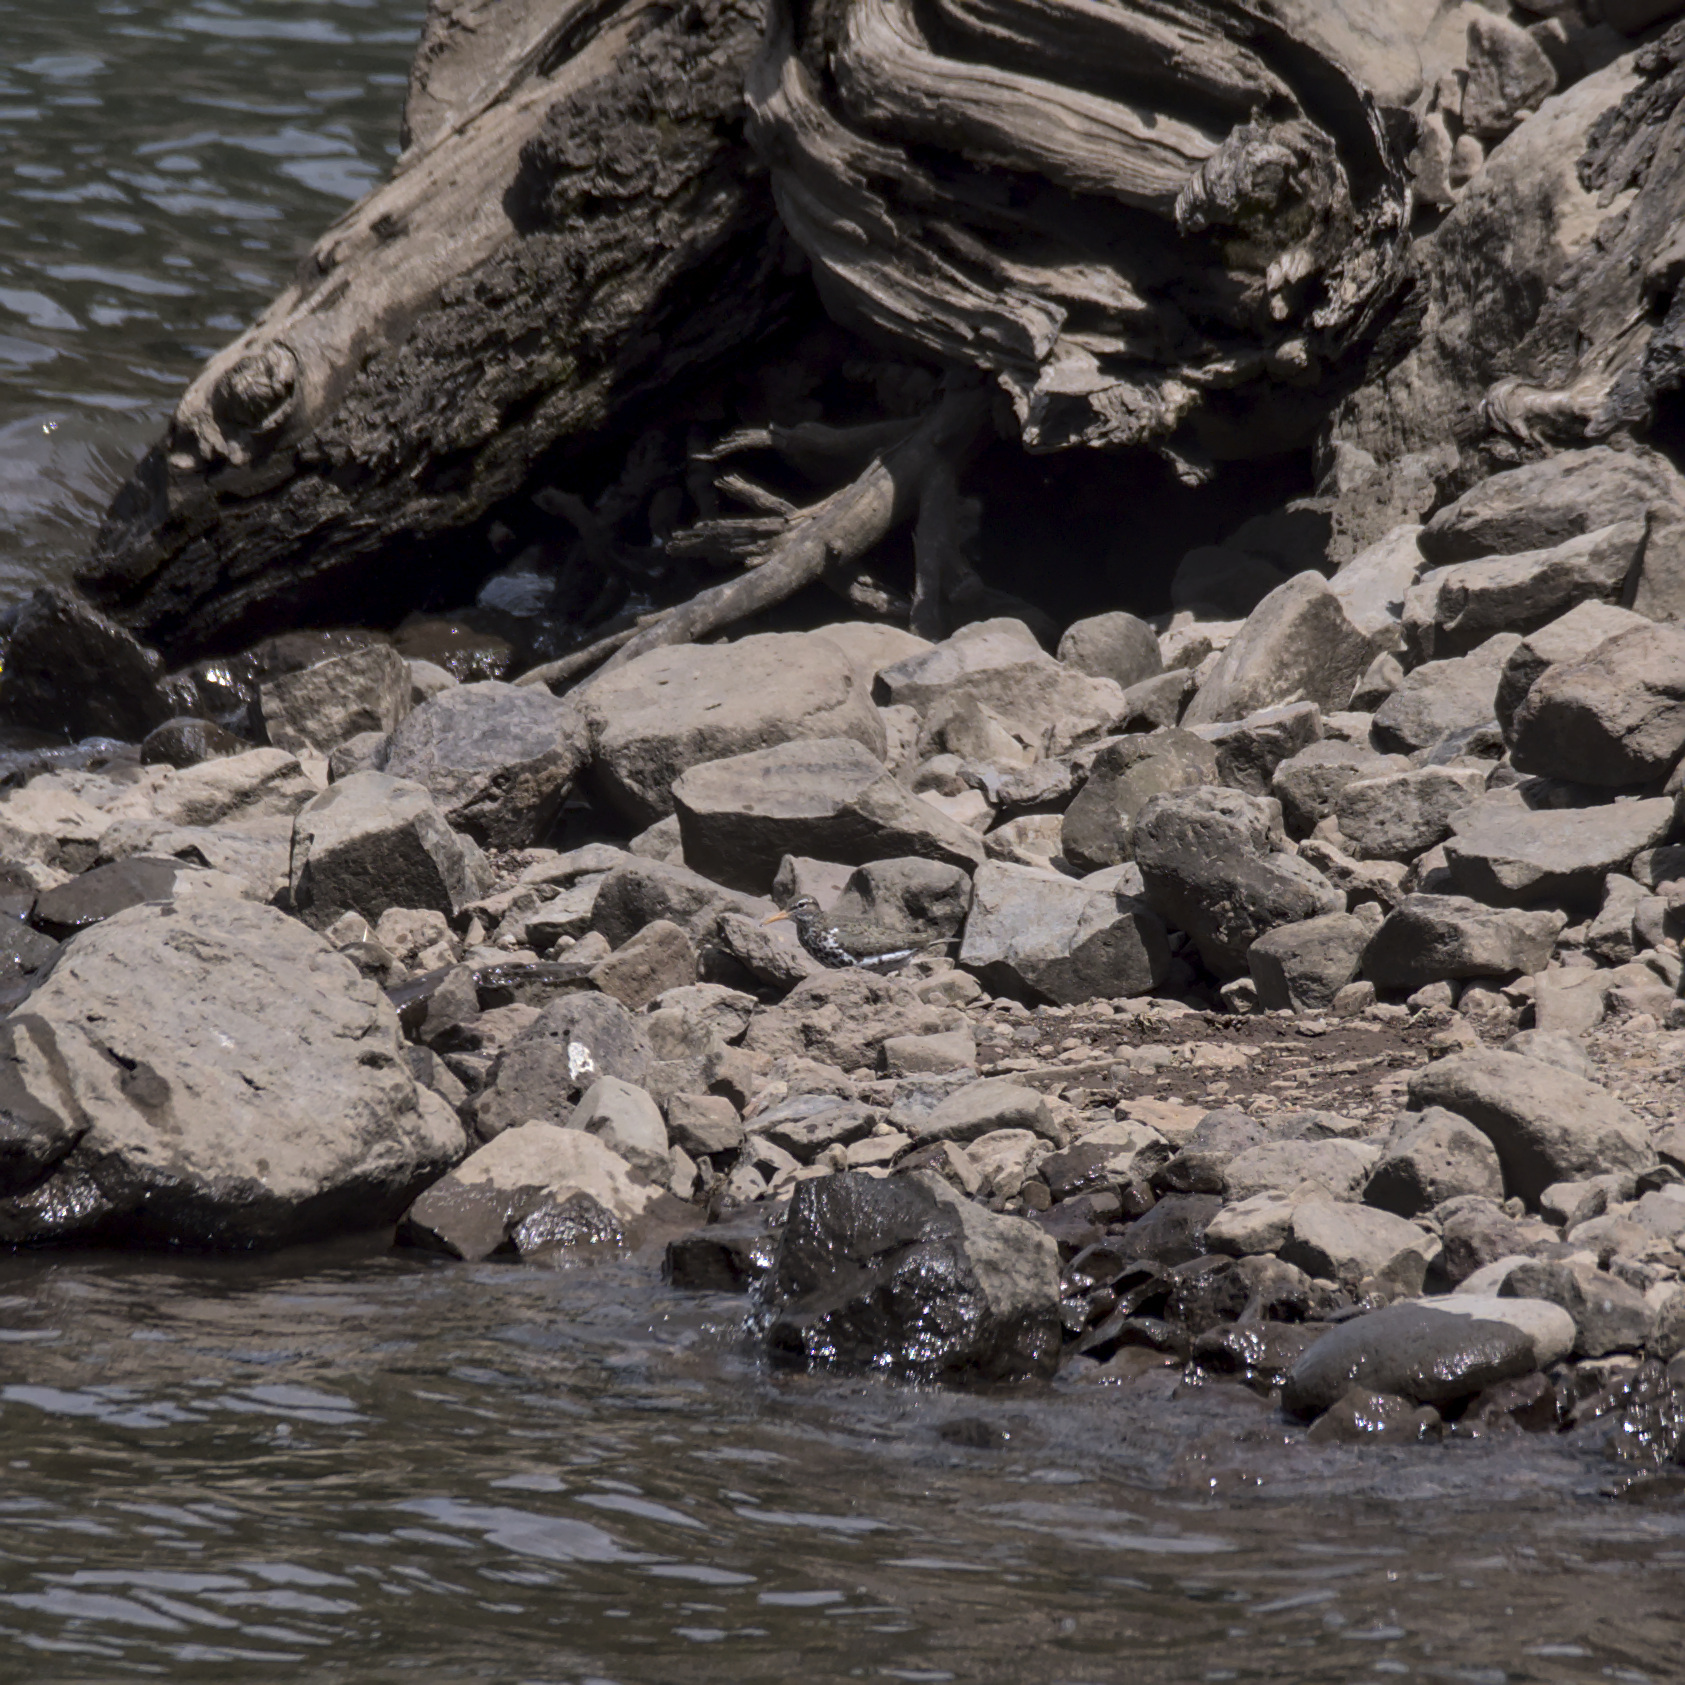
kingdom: Animalia
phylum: Chordata
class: Aves
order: Charadriiformes
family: Scolopacidae
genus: Actitis
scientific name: Actitis macularius
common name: Spotted sandpiper
